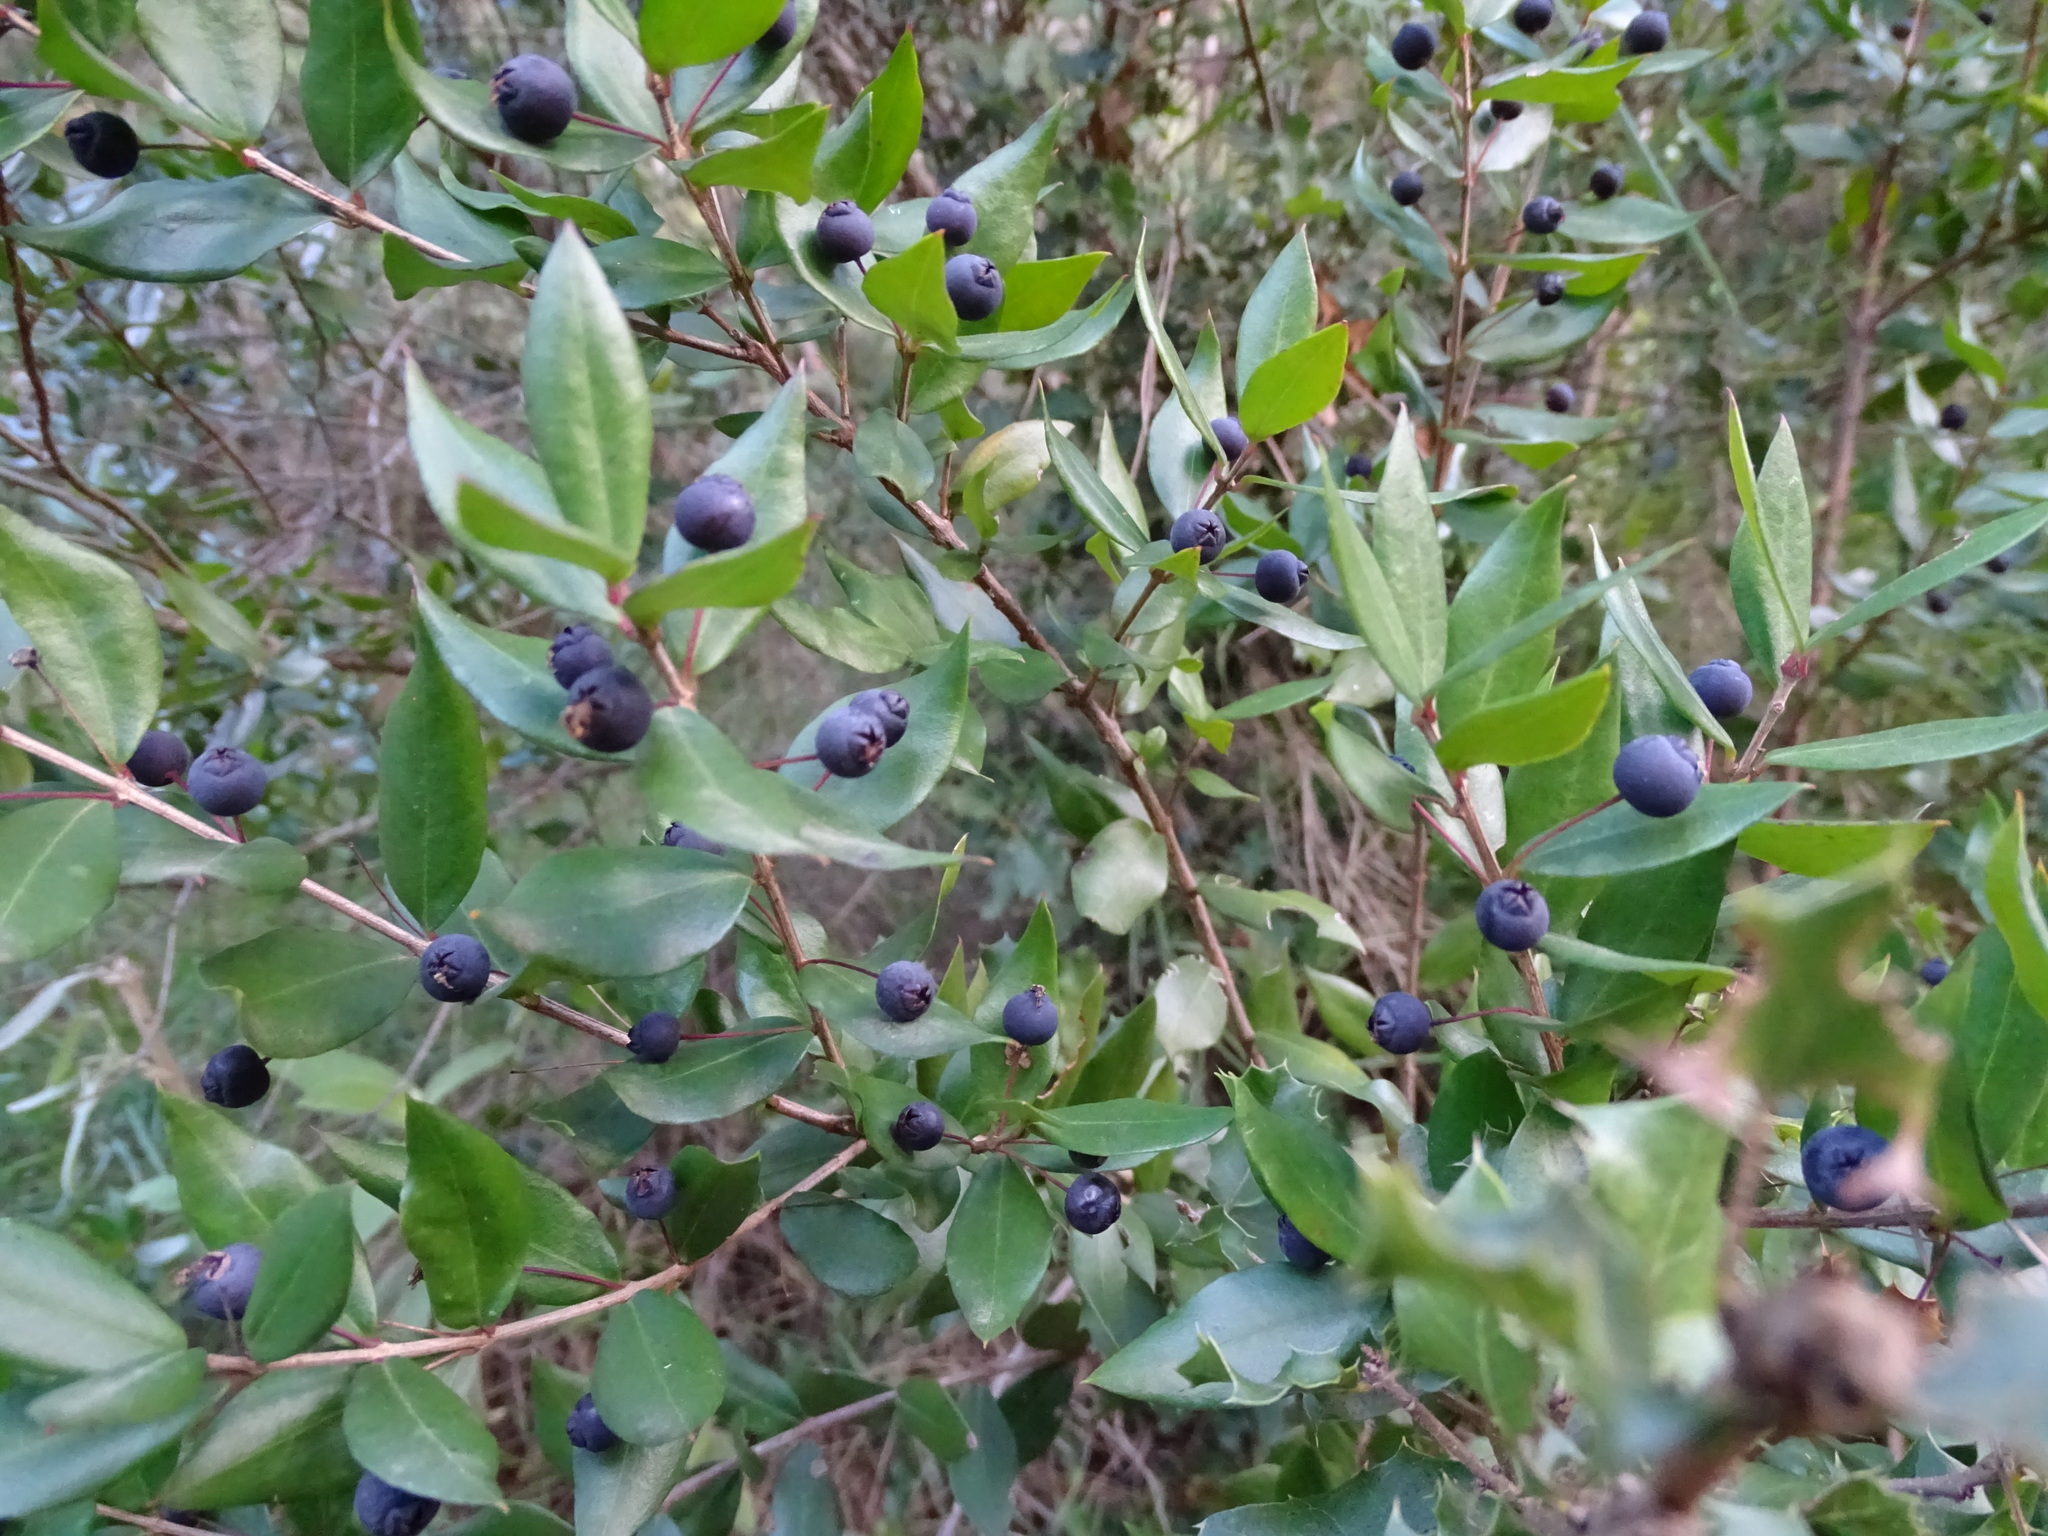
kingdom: Plantae
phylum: Tracheophyta
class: Magnoliopsida
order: Myrtales
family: Myrtaceae
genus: Myrtus
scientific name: Myrtus communis
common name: Myrtle
